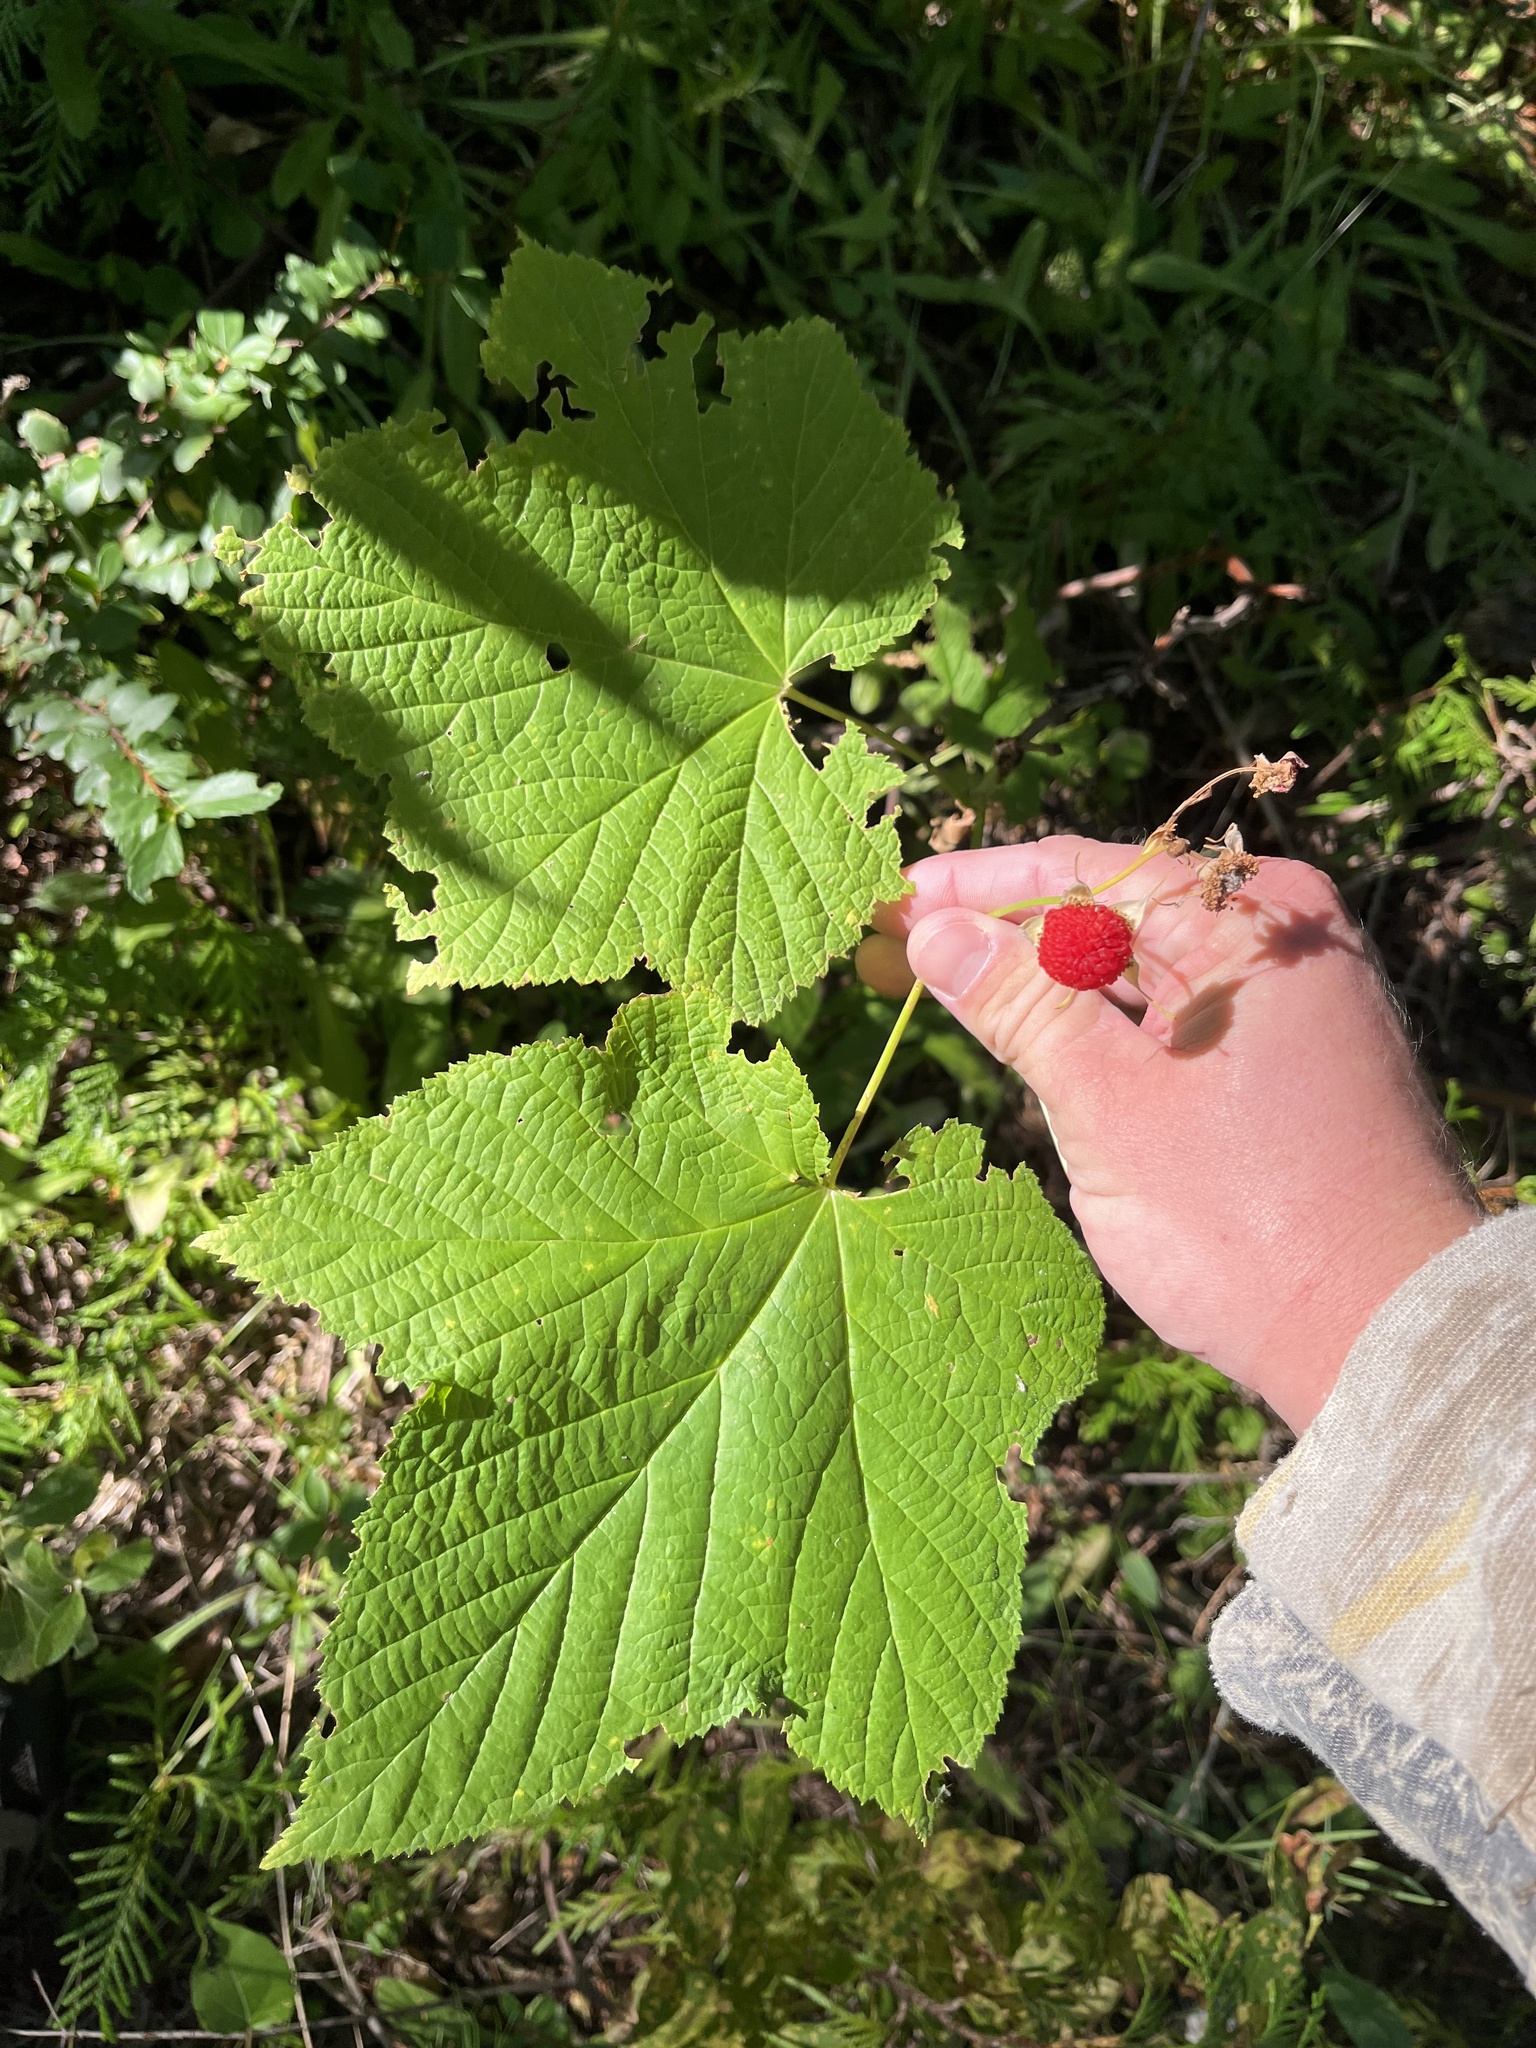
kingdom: Plantae
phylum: Tracheophyta
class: Magnoliopsida
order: Rosales
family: Rosaceae
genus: Rubus
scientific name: Rubus parviflorus
